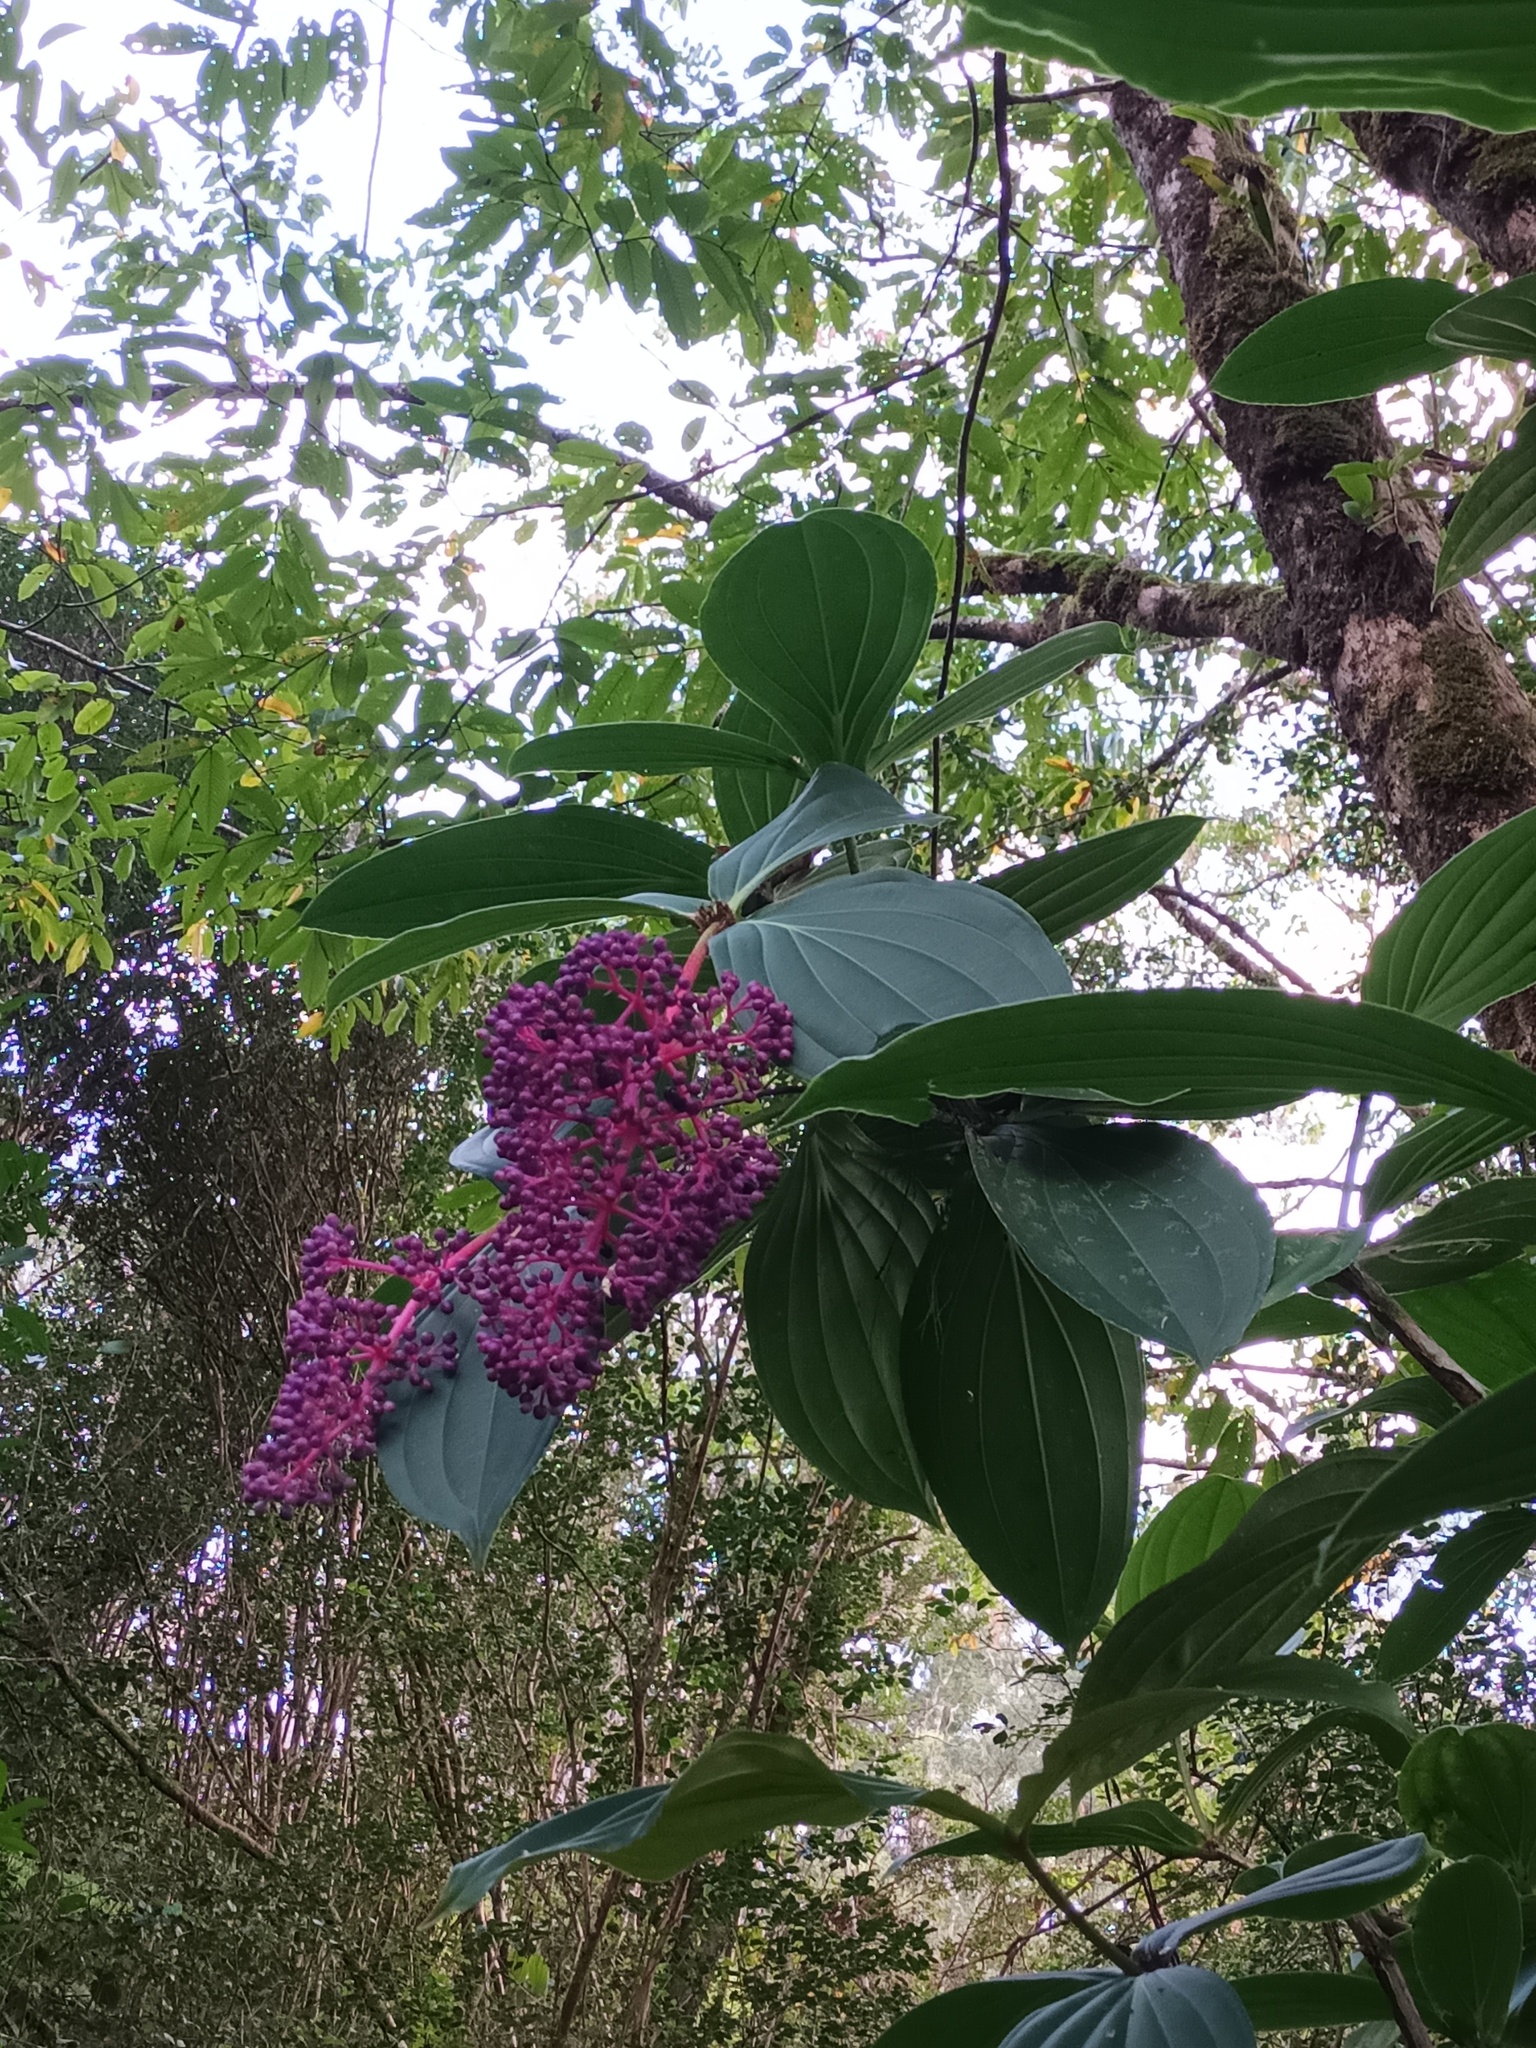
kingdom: Plantae
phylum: Tracheophyta
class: Magnoliopsida
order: Myrtales
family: Melastomataceae
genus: Medinilla
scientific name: Medinilla cumingii
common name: Chandelier tree
